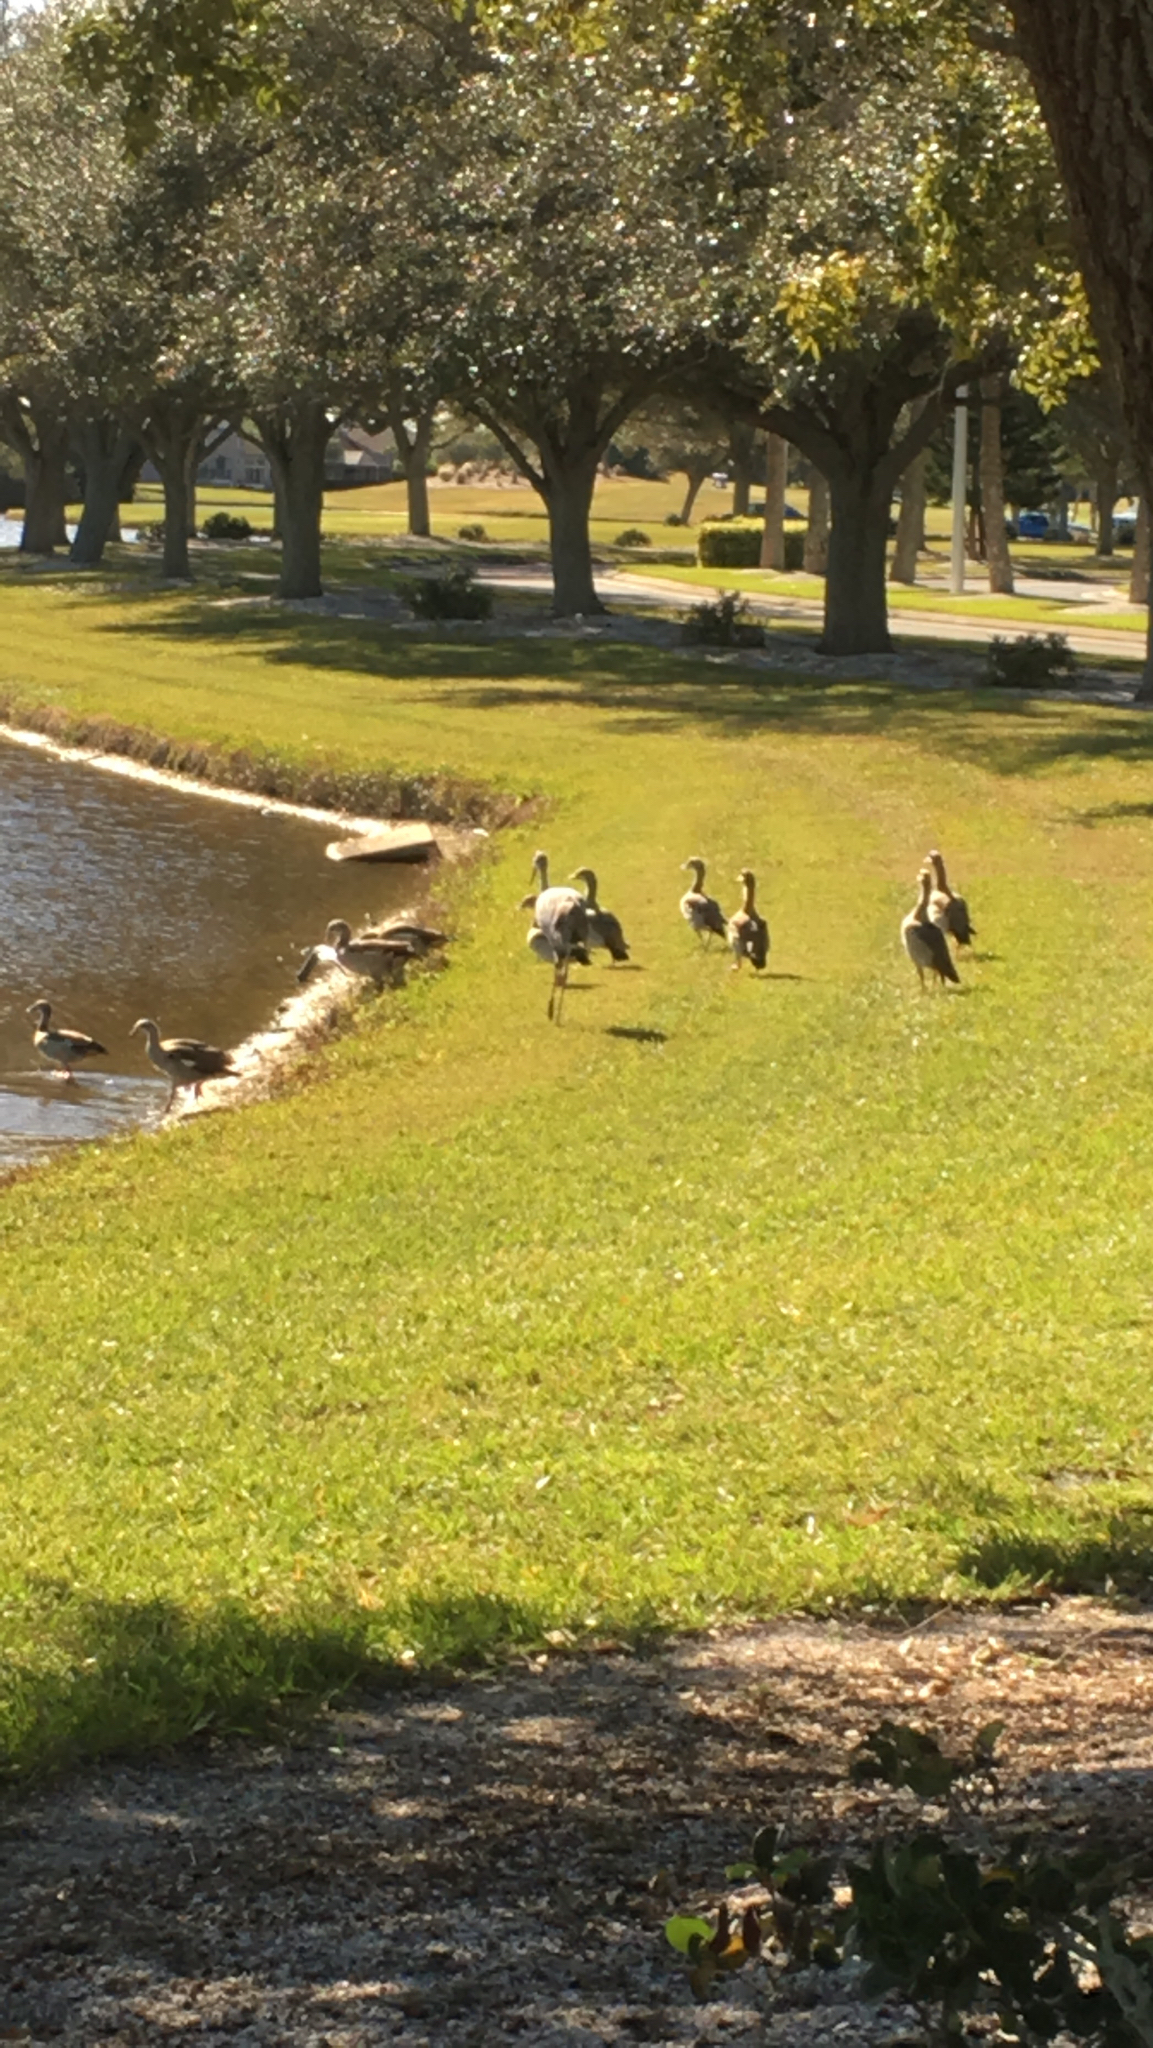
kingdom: Animalia
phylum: Chordata
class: Aves
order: Anseriformes
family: Anatidae
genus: Alopochen
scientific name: Alopochen aegyptiaca
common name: Egyptian goose
